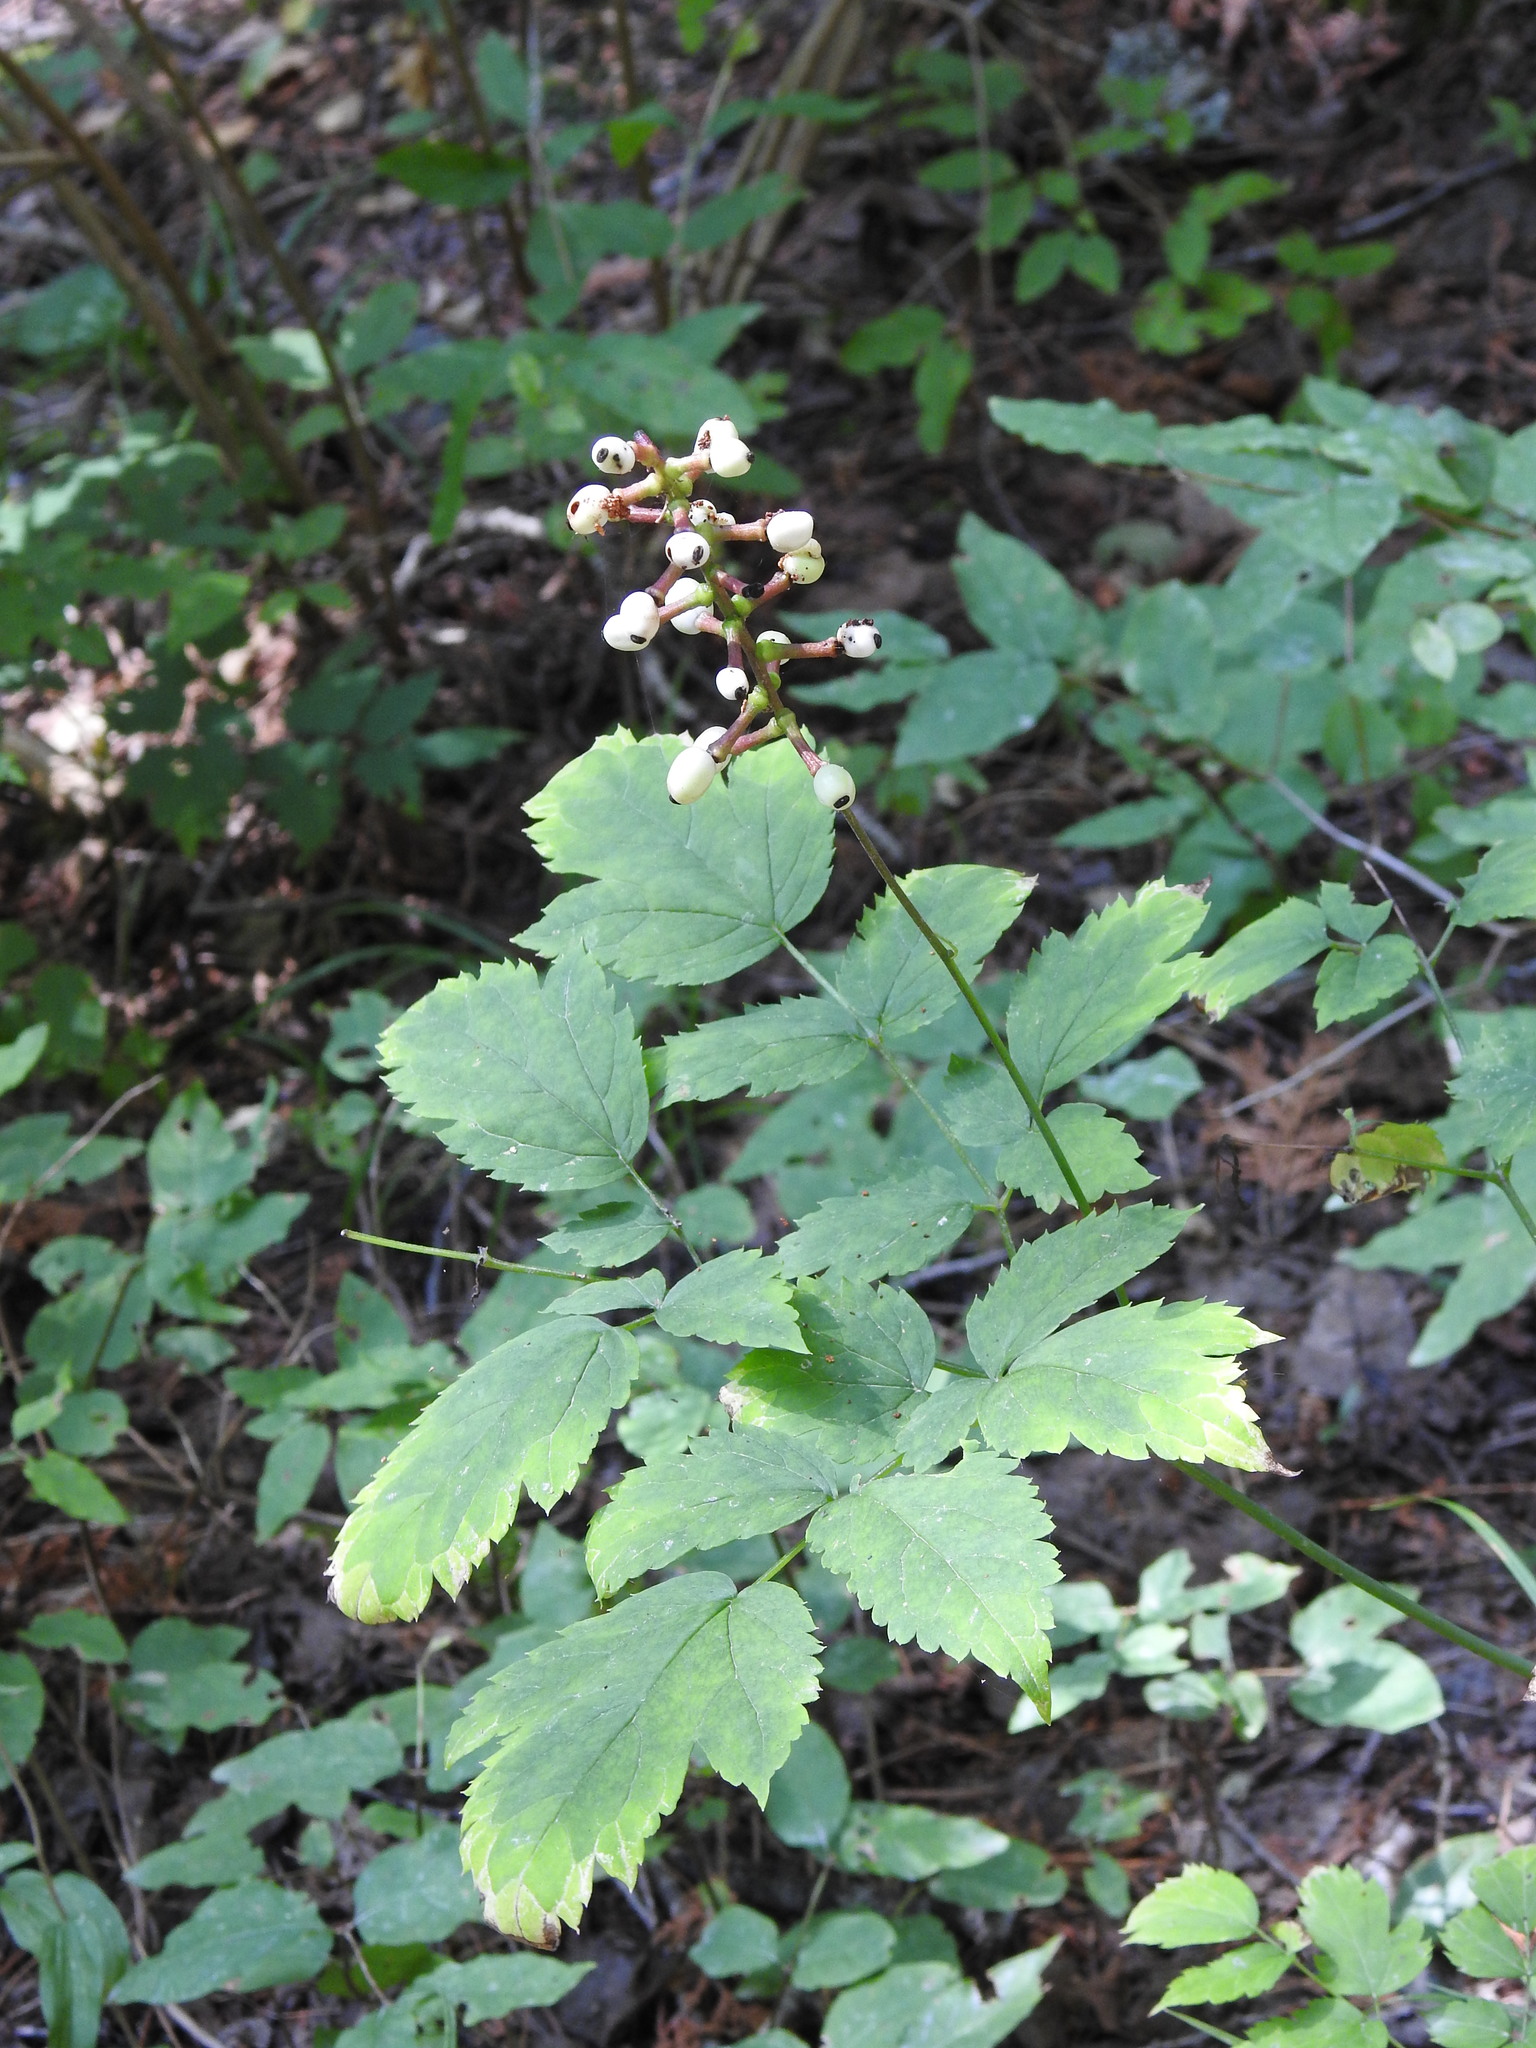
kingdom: Plantae
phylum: Tracheophyta
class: Magnoliopsida
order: Ranunculales
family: Ranunculaceae
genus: Actaea
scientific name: Actaea pachypoda
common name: Doll's-eyes
